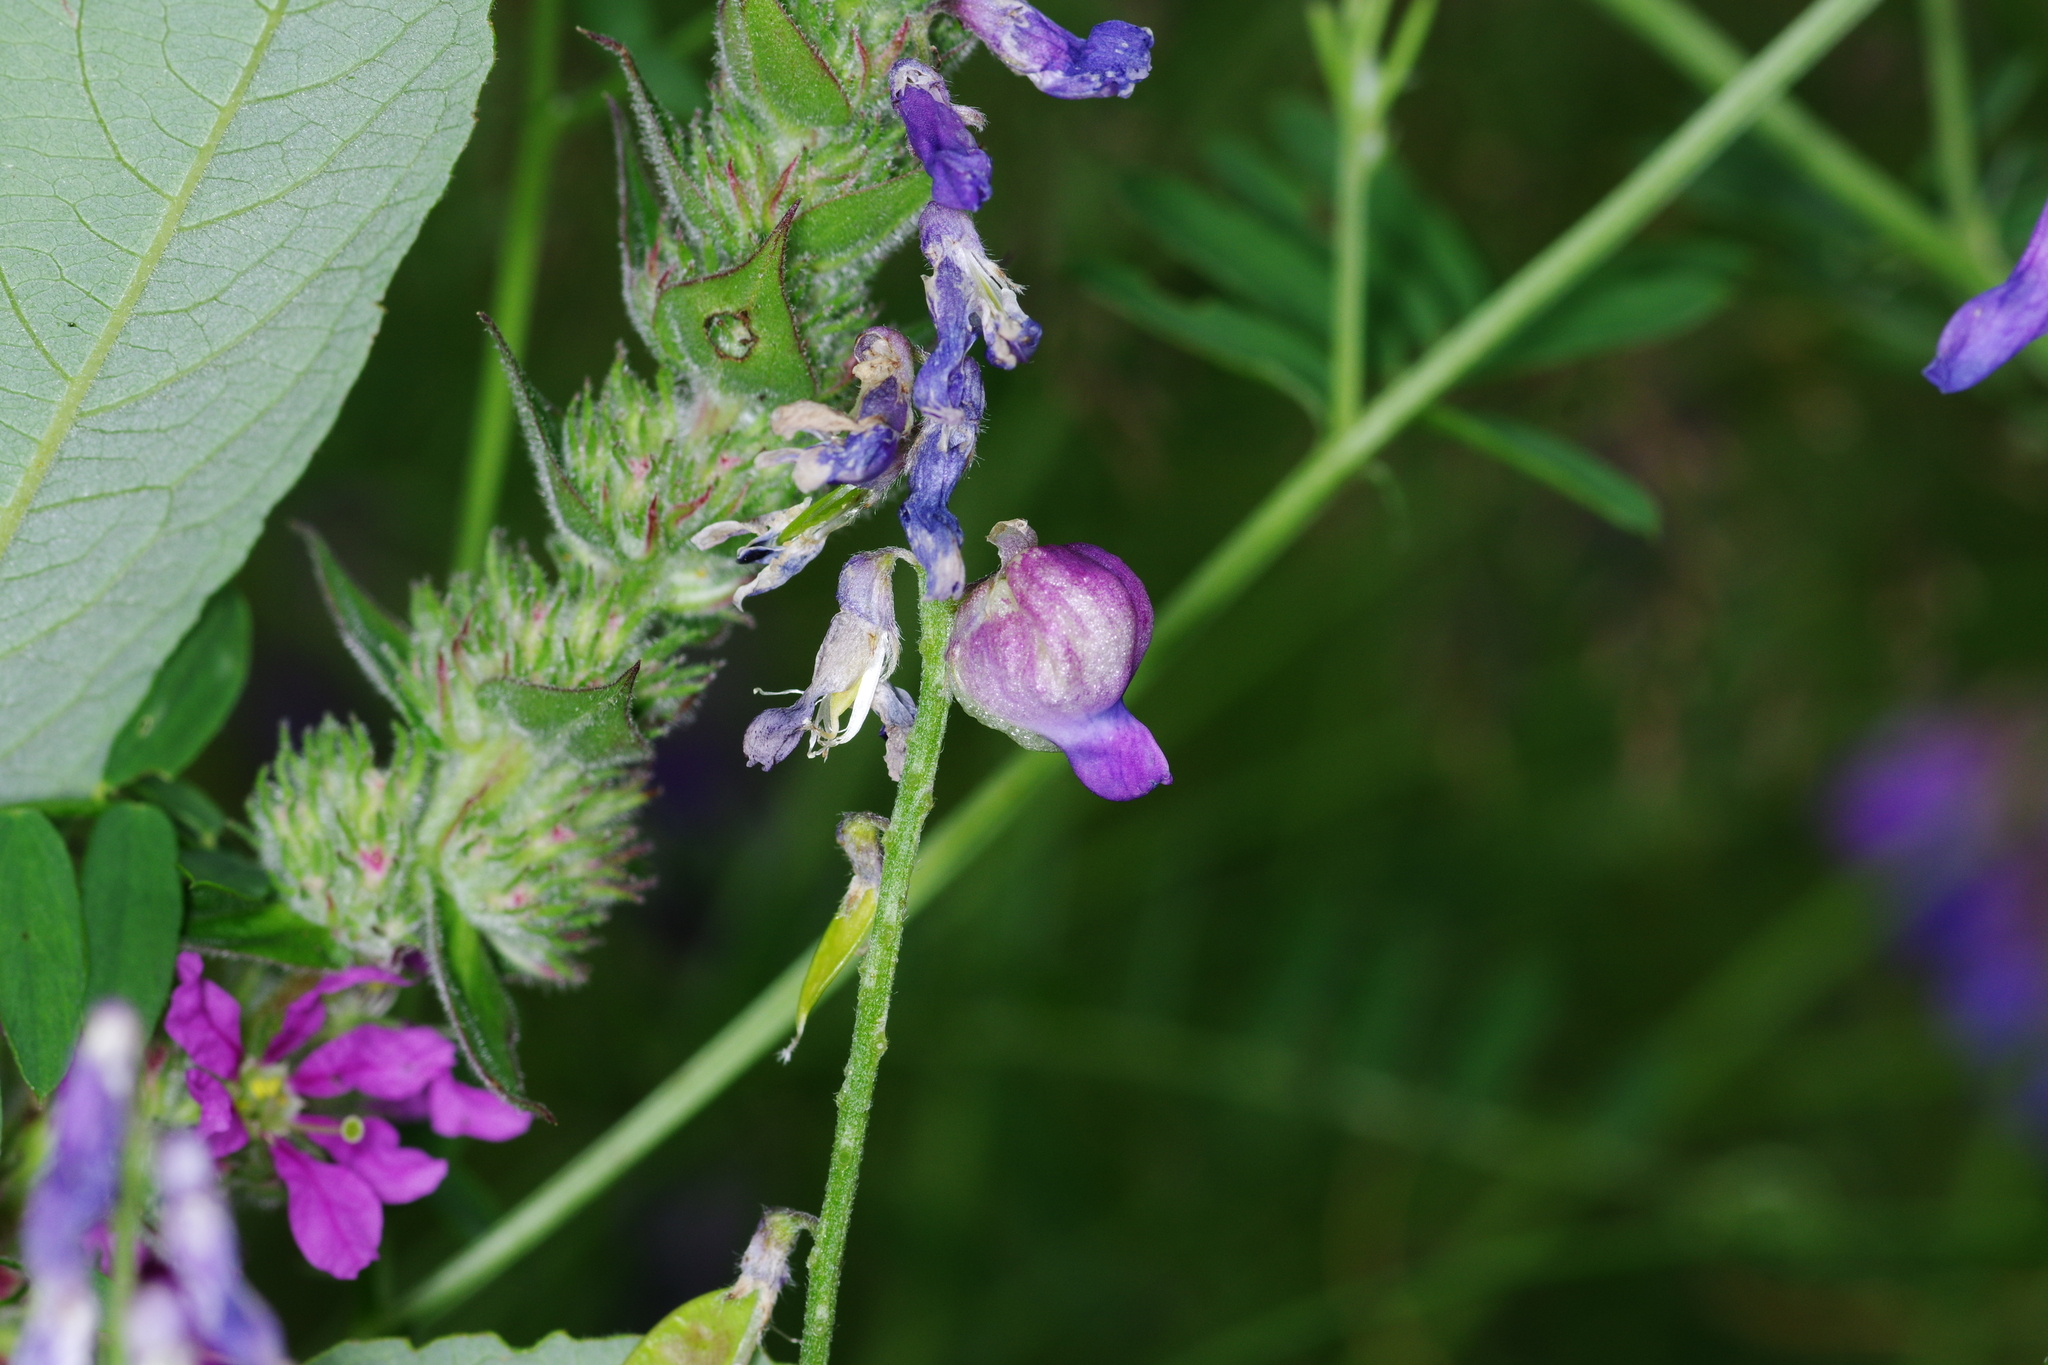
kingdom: Animalia
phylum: Arthropoda
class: Insecta
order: Diptera
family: Cecidomyiidae
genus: Contarinia
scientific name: Contarinia craccae
